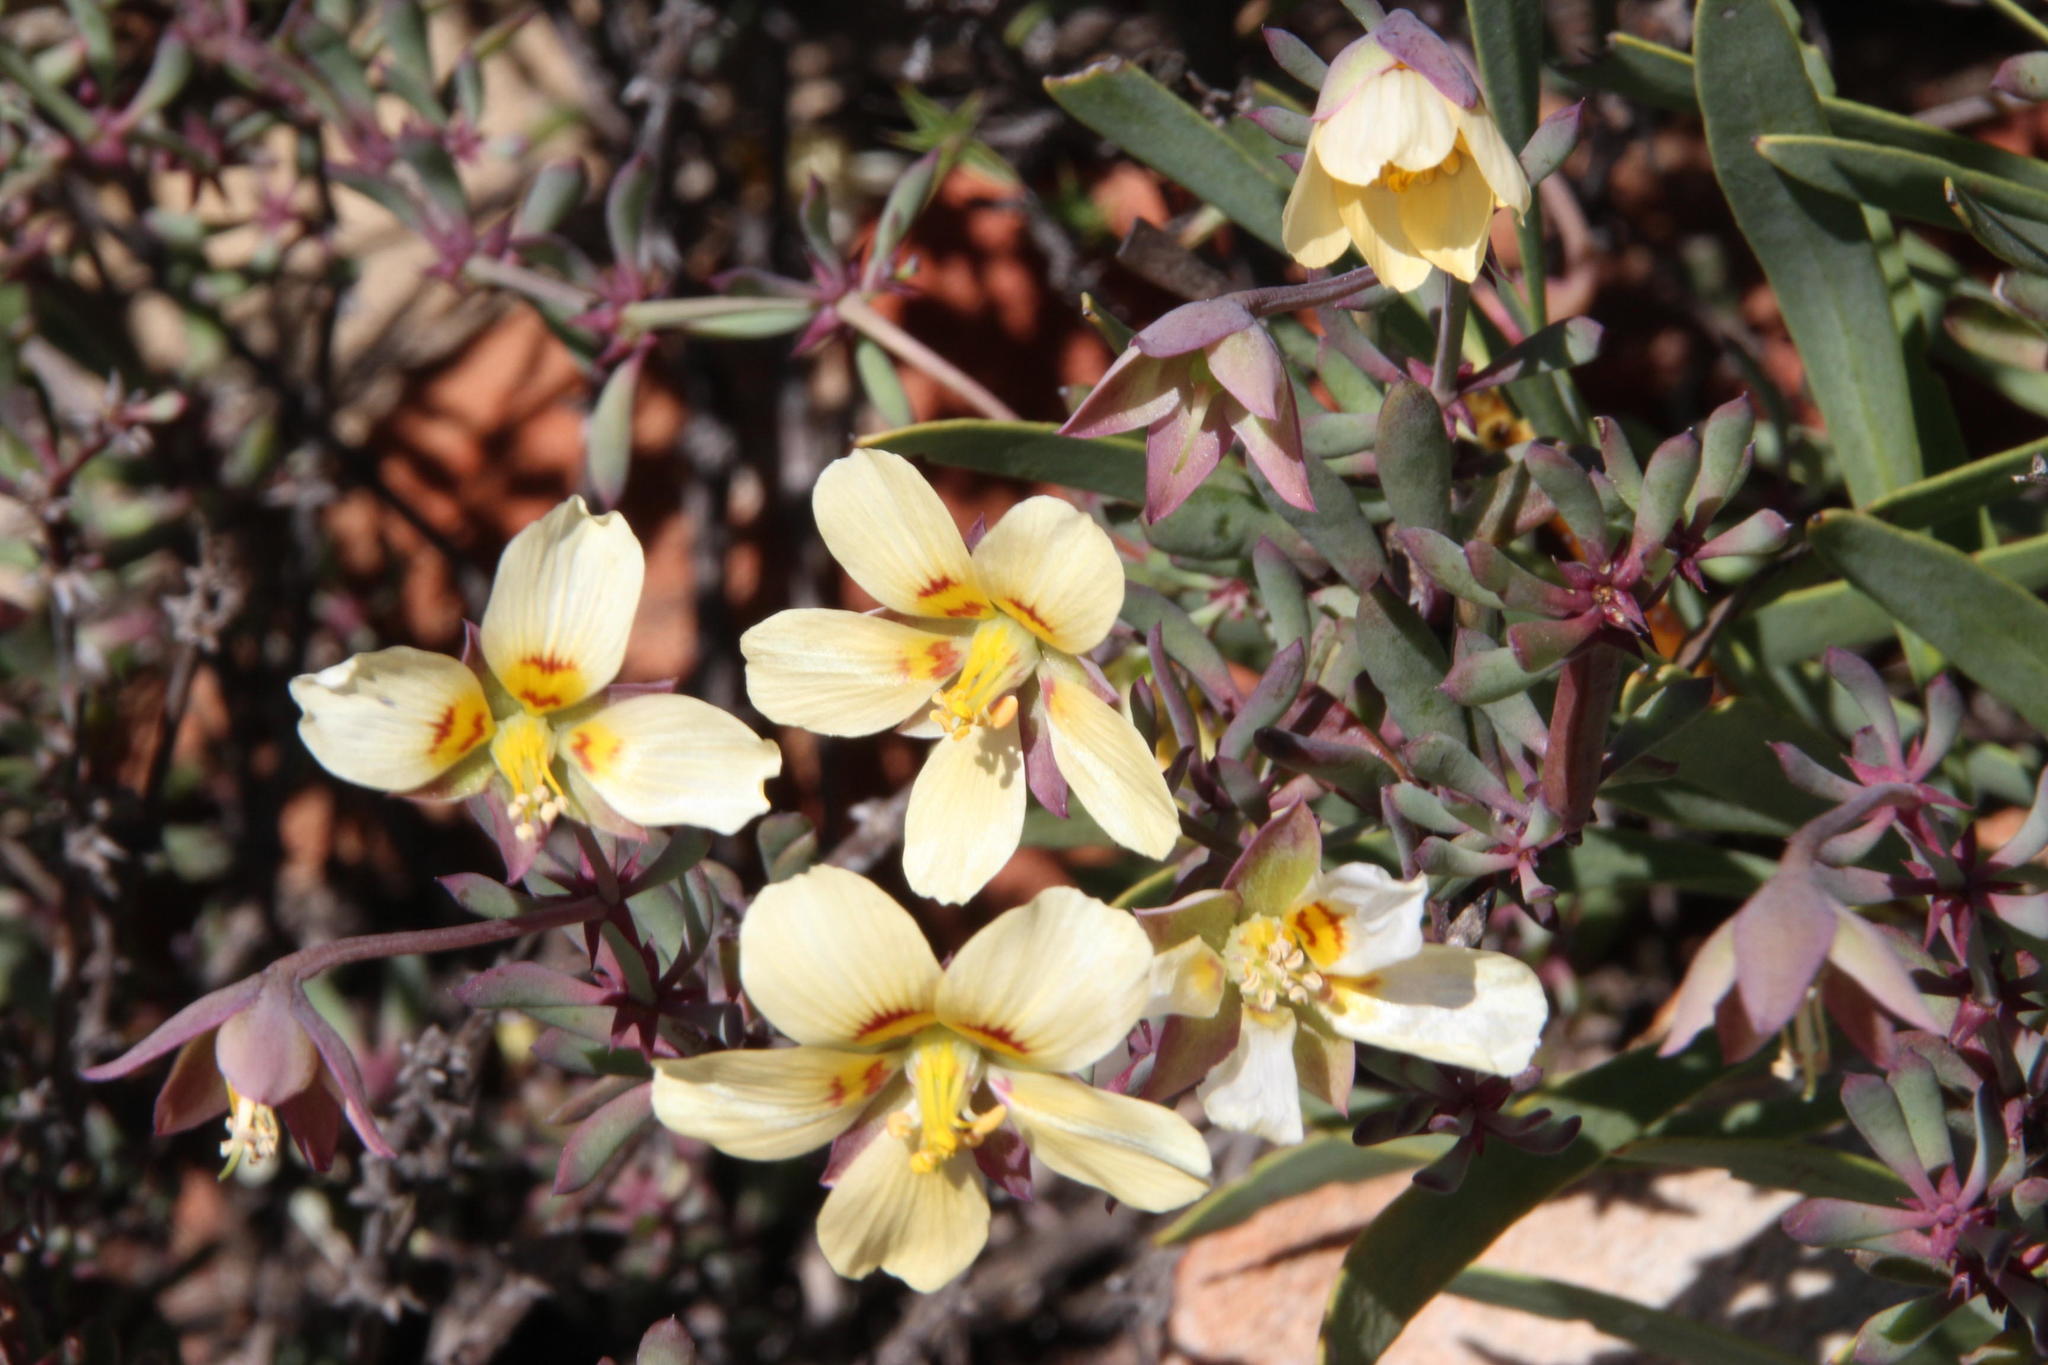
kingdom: Plantae
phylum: Tracheophyta
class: Magnoliopsida
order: Zygophyllales
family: Zygophyllaceae
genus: Roepera
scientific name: Roepera fulva
